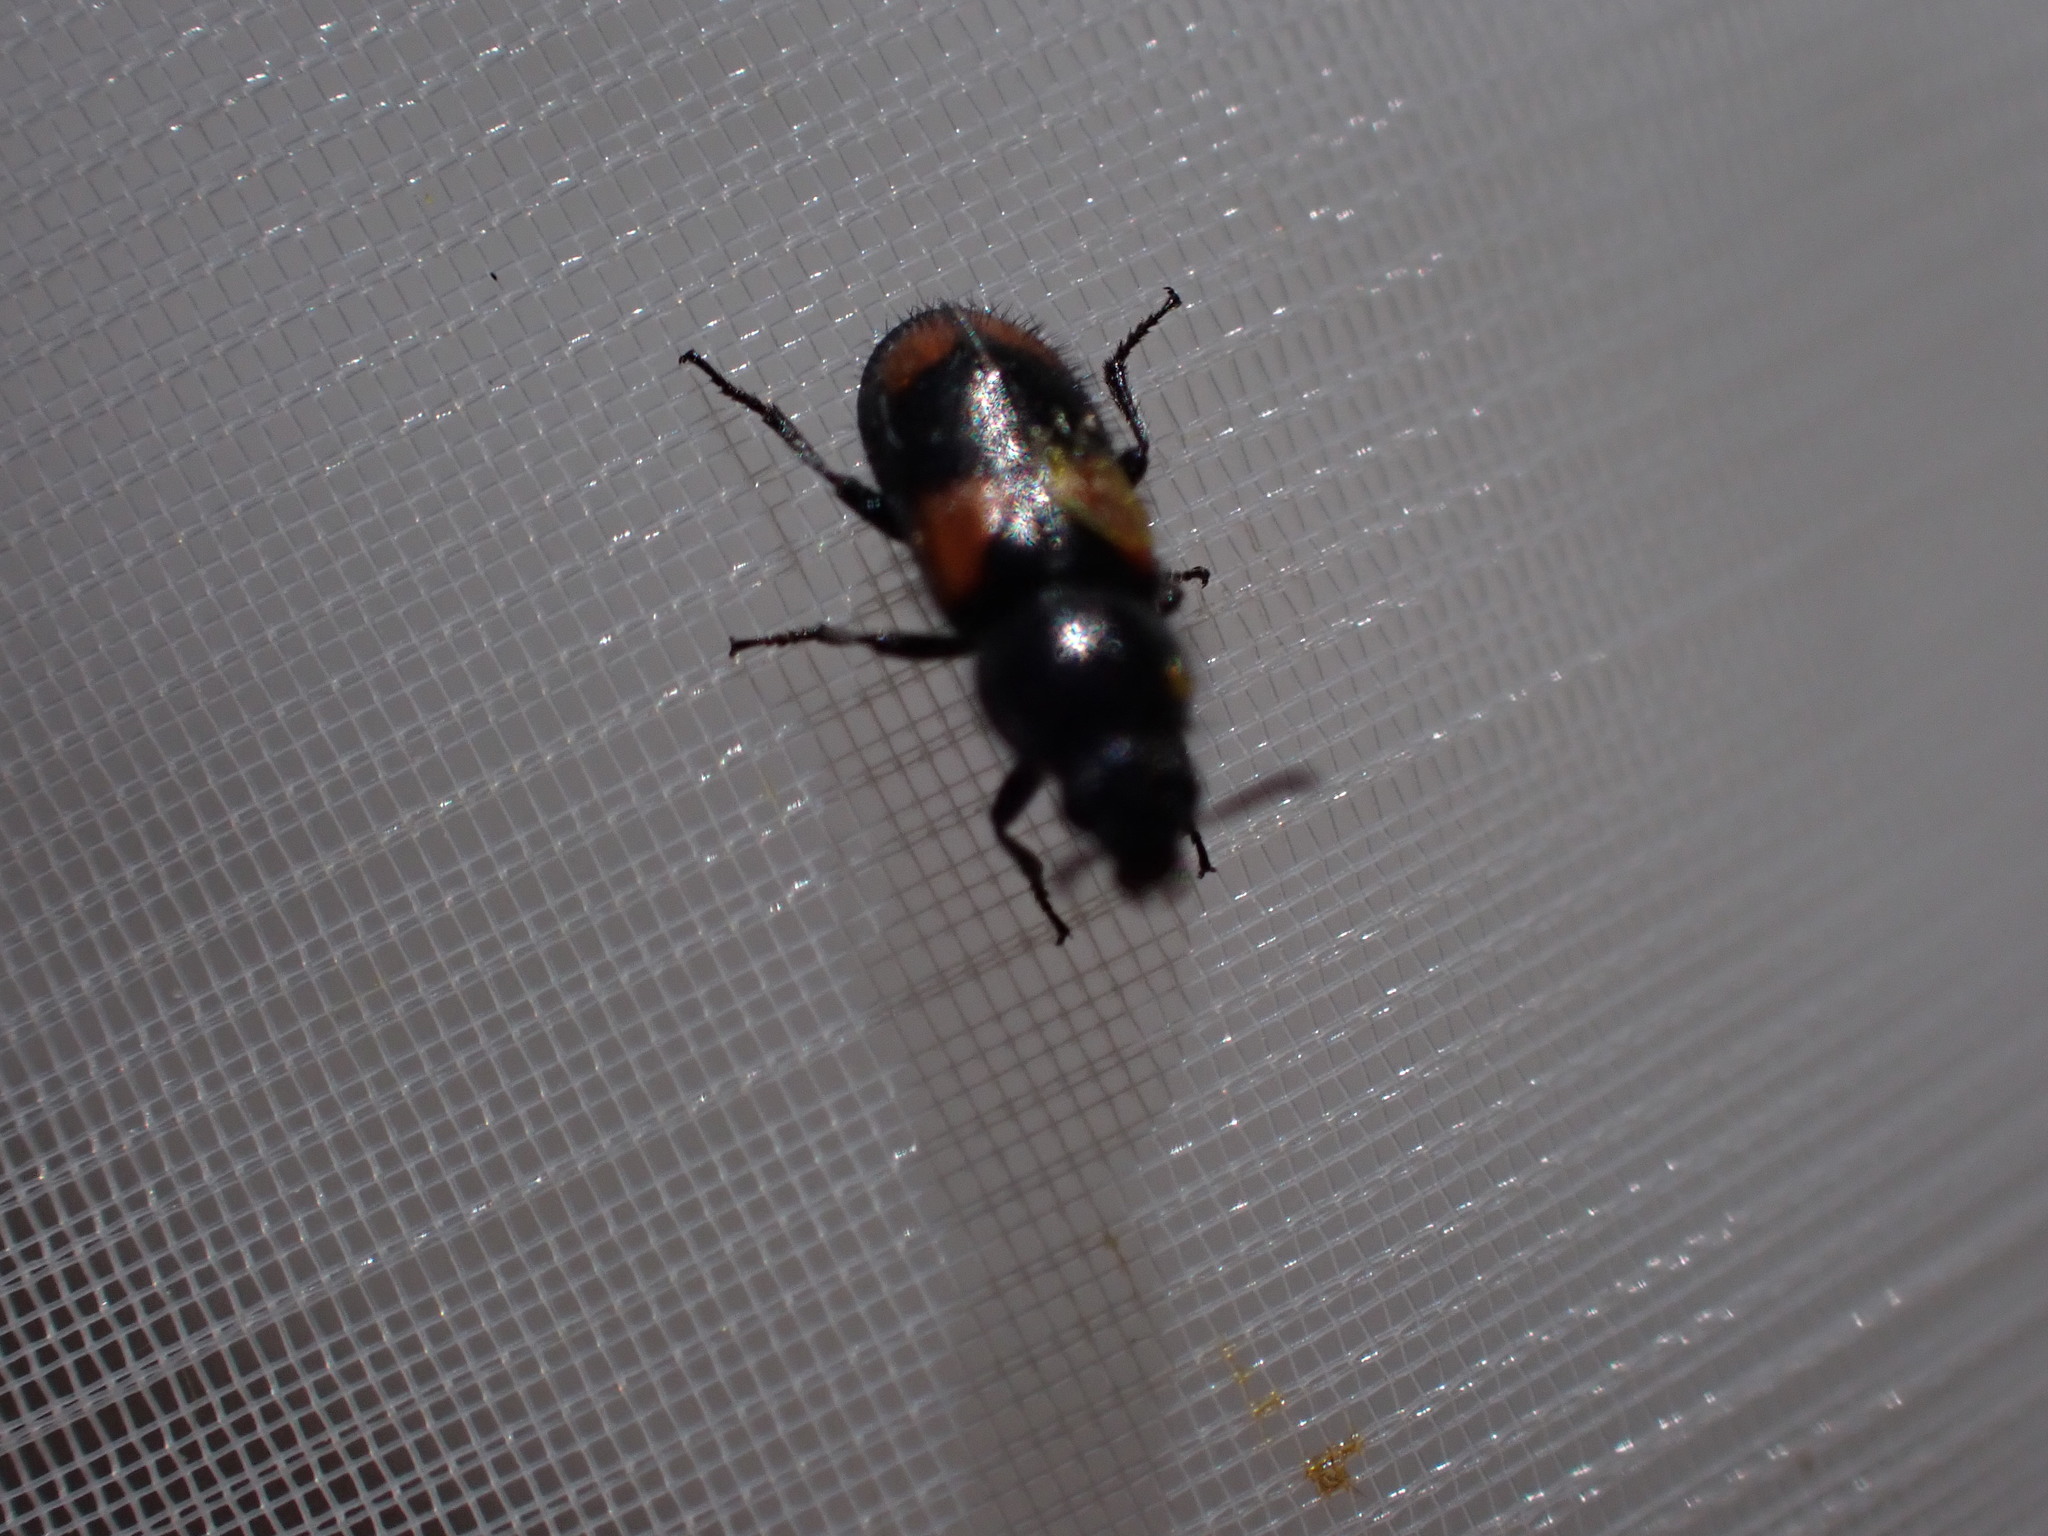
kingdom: Animalia
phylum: Arthropoda
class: Insecta
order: Coleoptera
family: Melyridae
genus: Divales
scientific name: Divales quadrimaculatus
